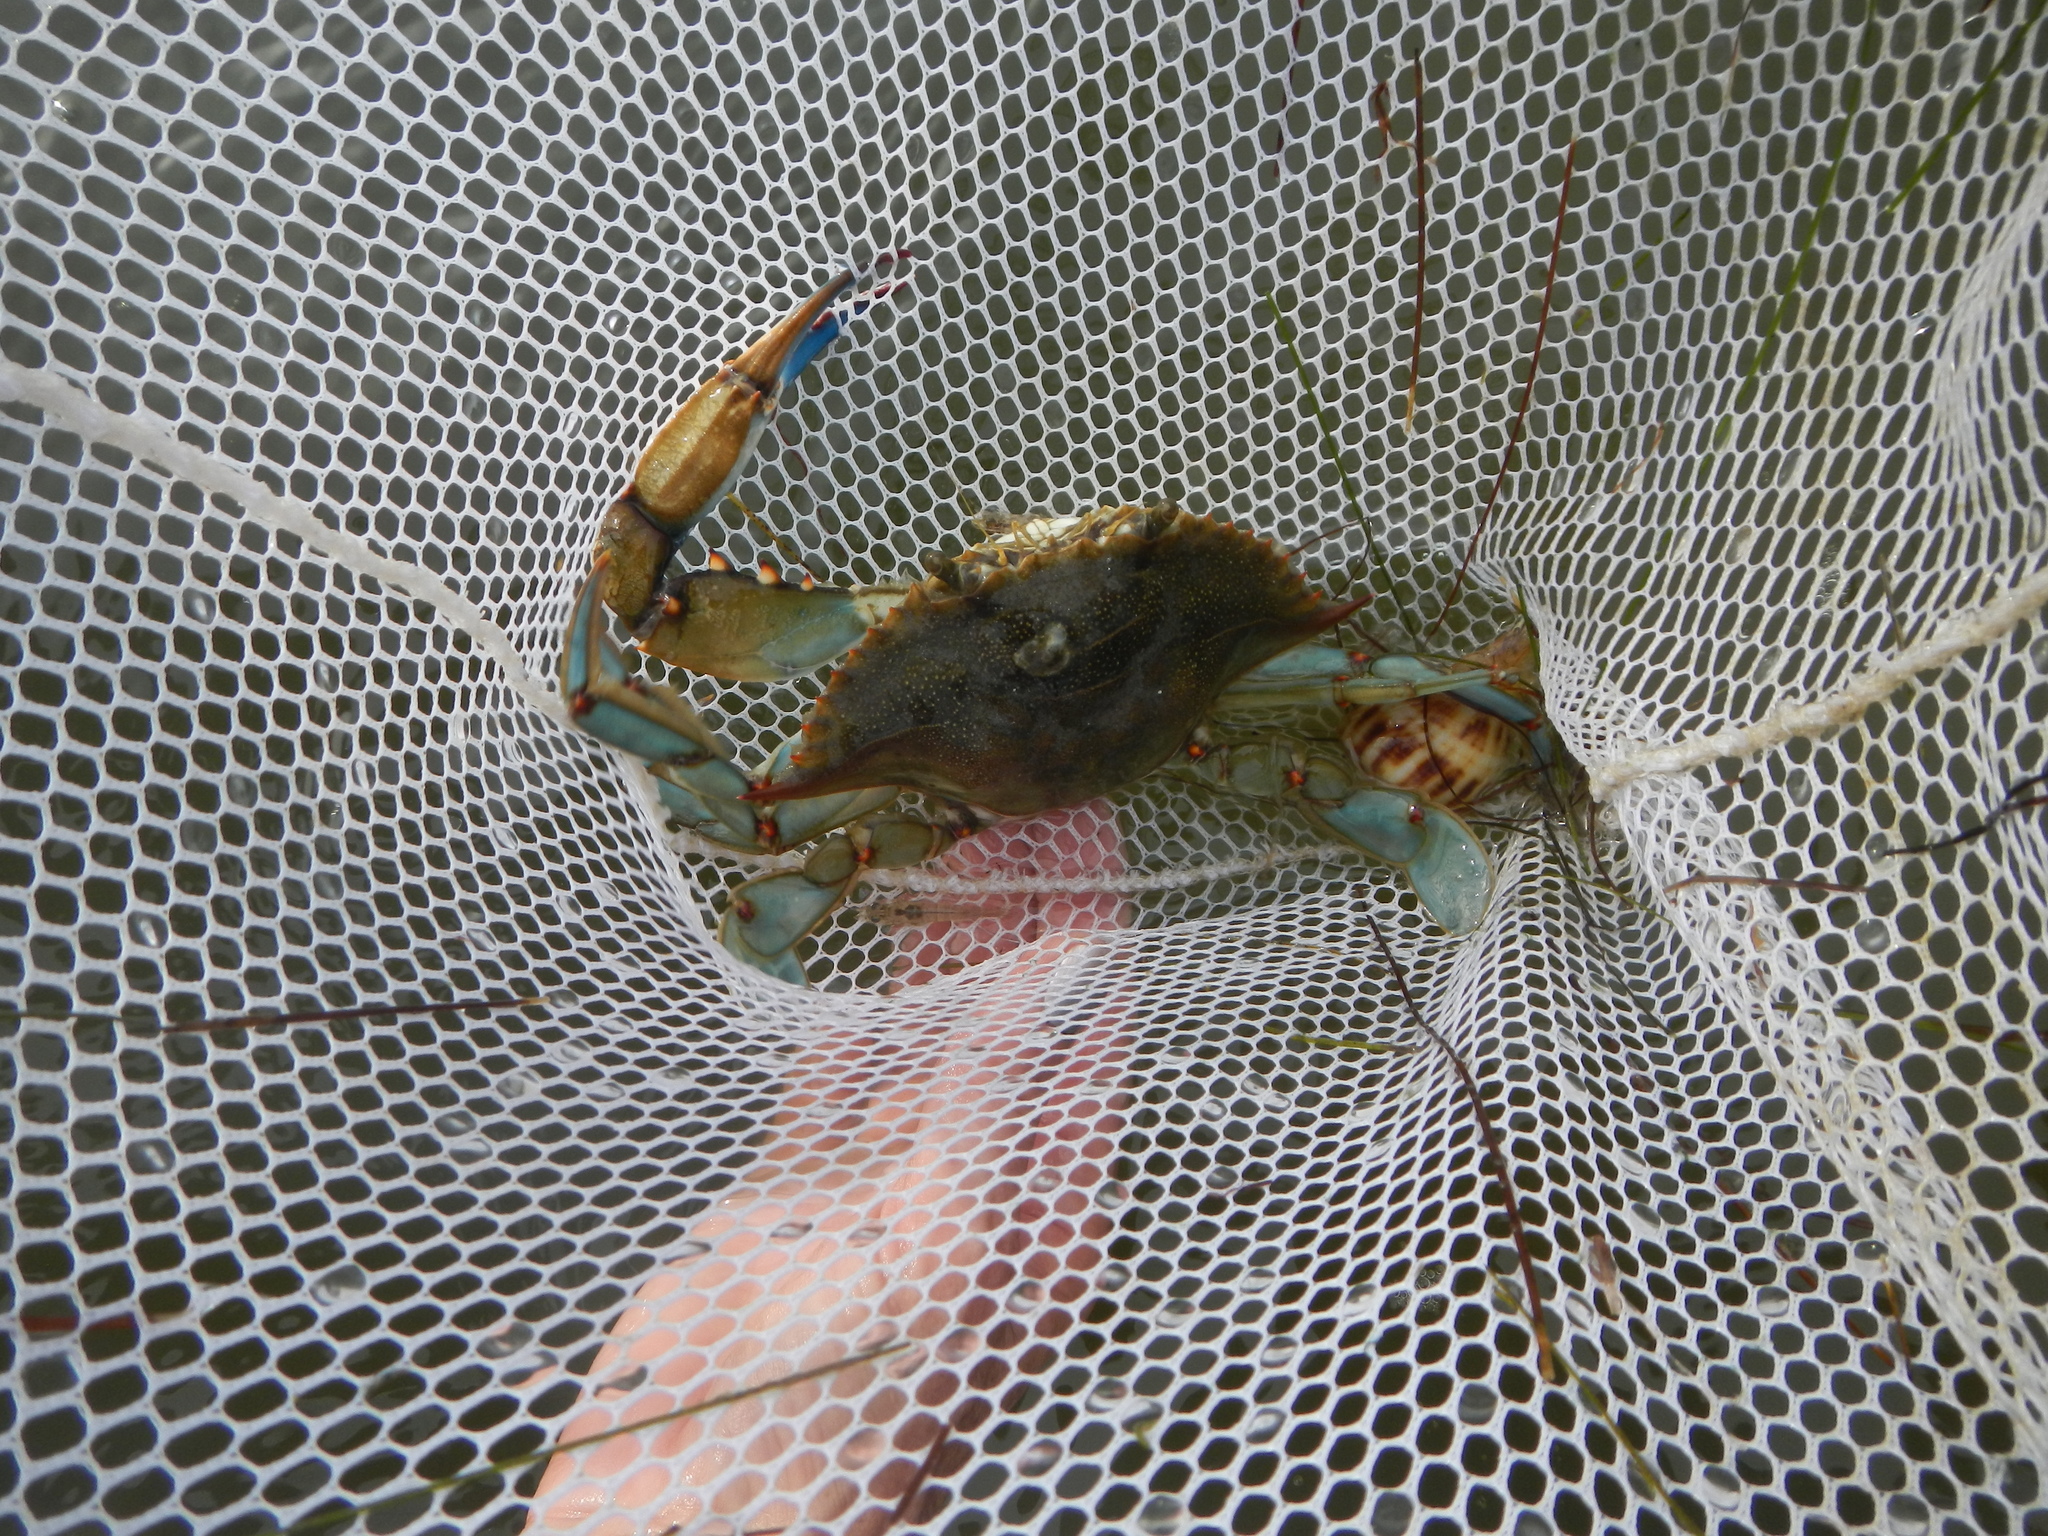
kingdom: Animalia
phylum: Arthropoda
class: Malacostraca
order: Decapoda
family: Portunidae
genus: Callinectes
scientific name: Callinectes sapidus
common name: Blue crab
